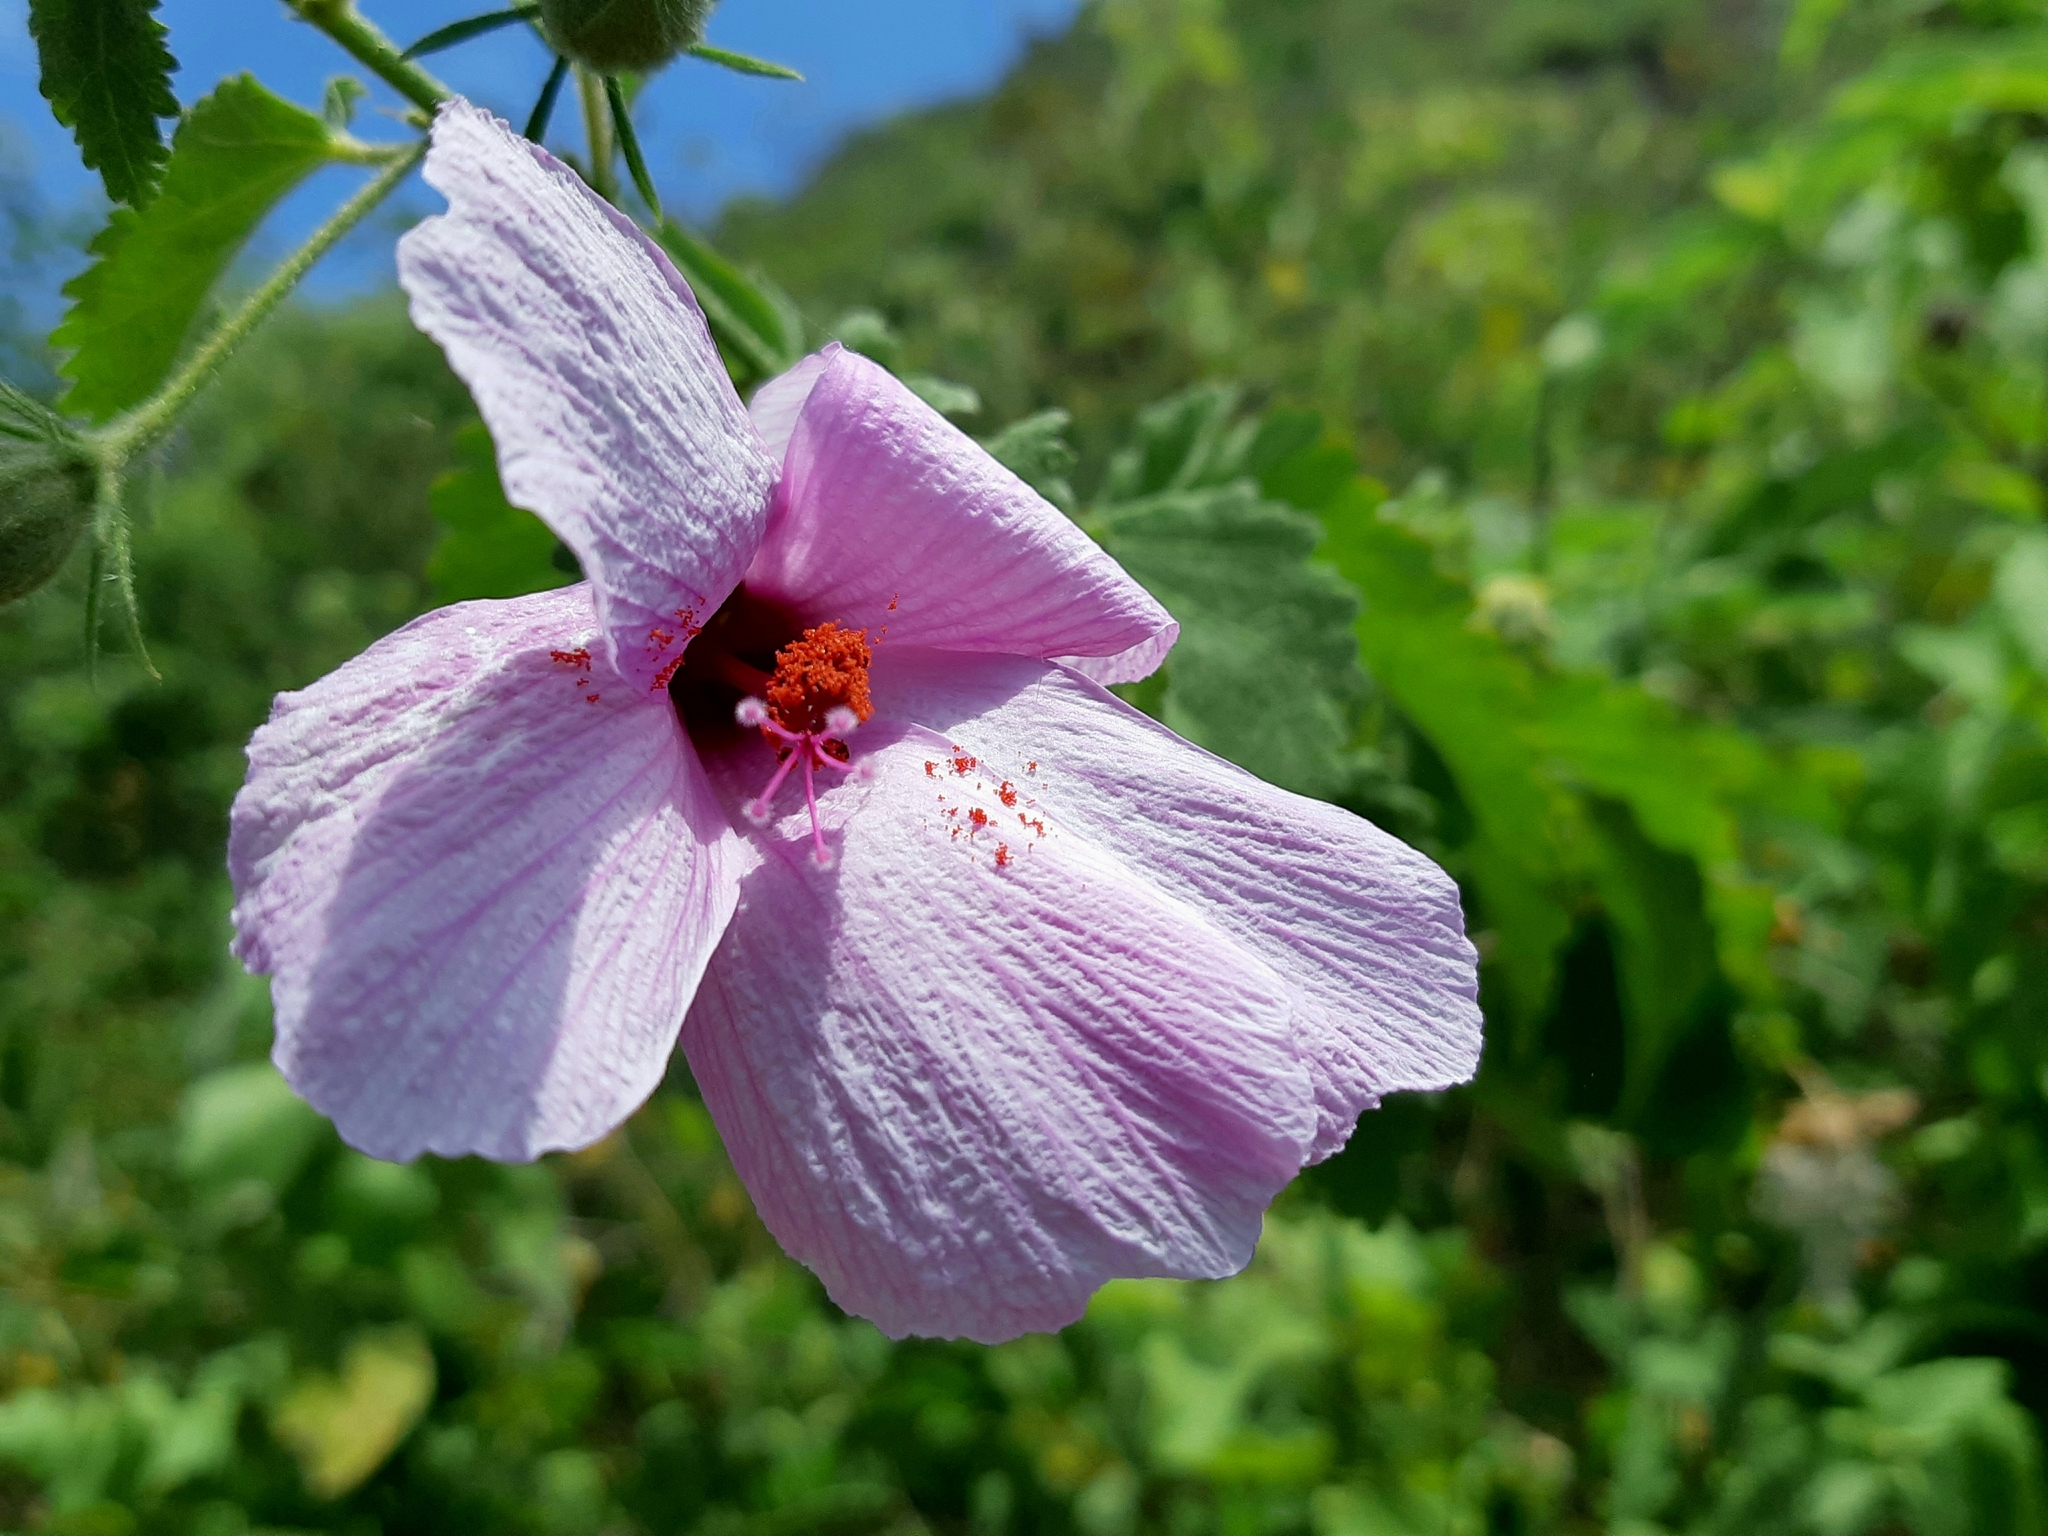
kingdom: Plantae
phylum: Tracheophyta
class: Magnoliopsida
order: Malvales
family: Malvaceae
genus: Hibiscus
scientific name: Hibiscus escobariae
